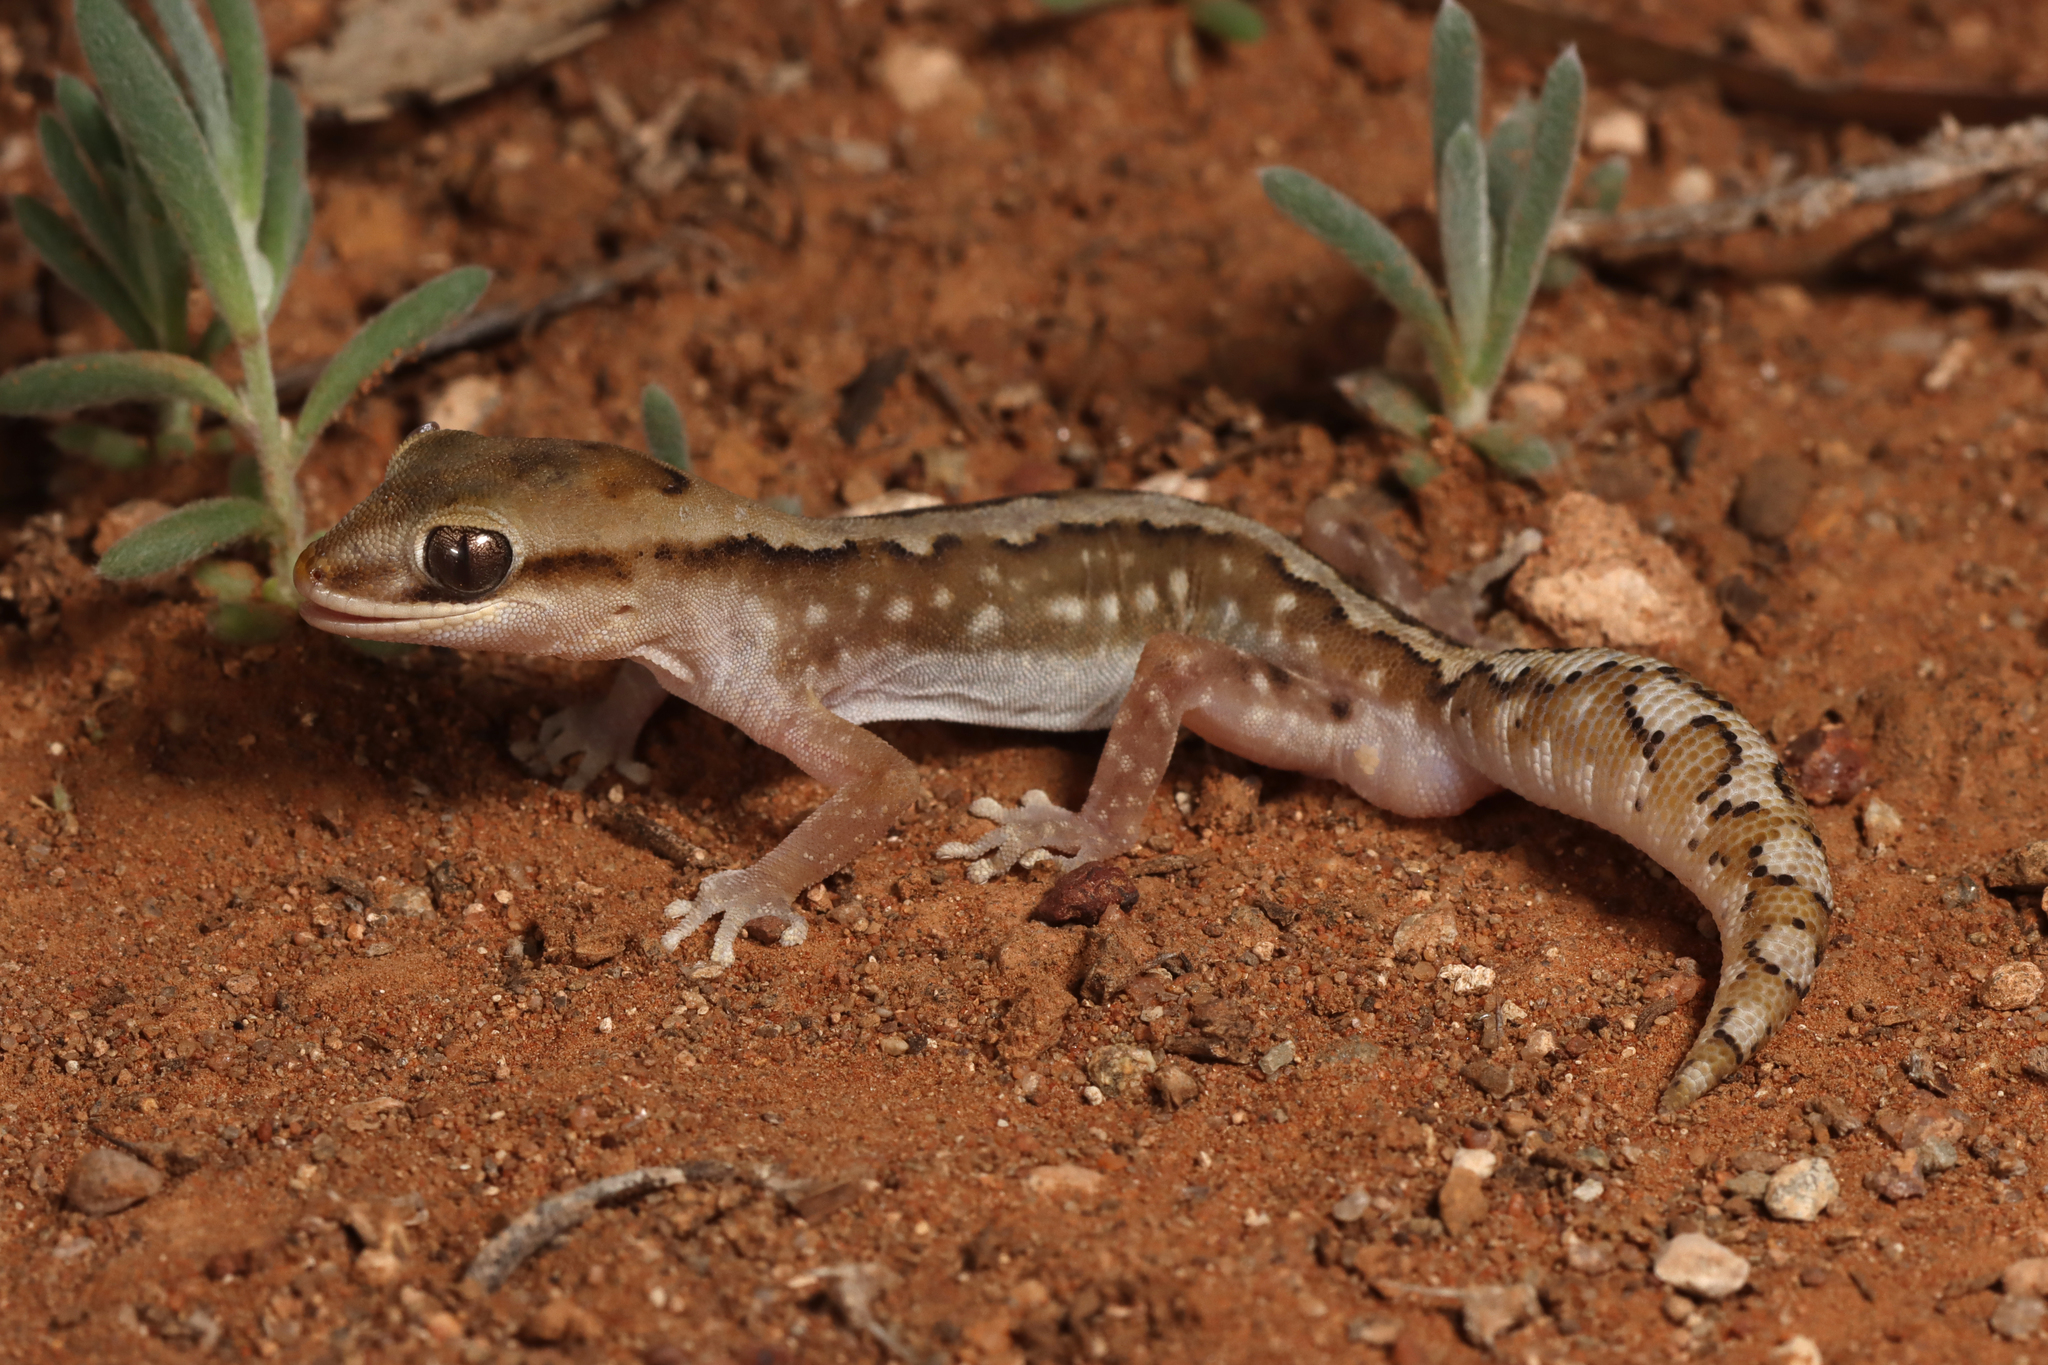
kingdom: Animalia
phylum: Chordata
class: Squamata
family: Diplodactylidae
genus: Diplodactylus
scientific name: Diplodactylus furcosus
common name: Ranges stone gecko
